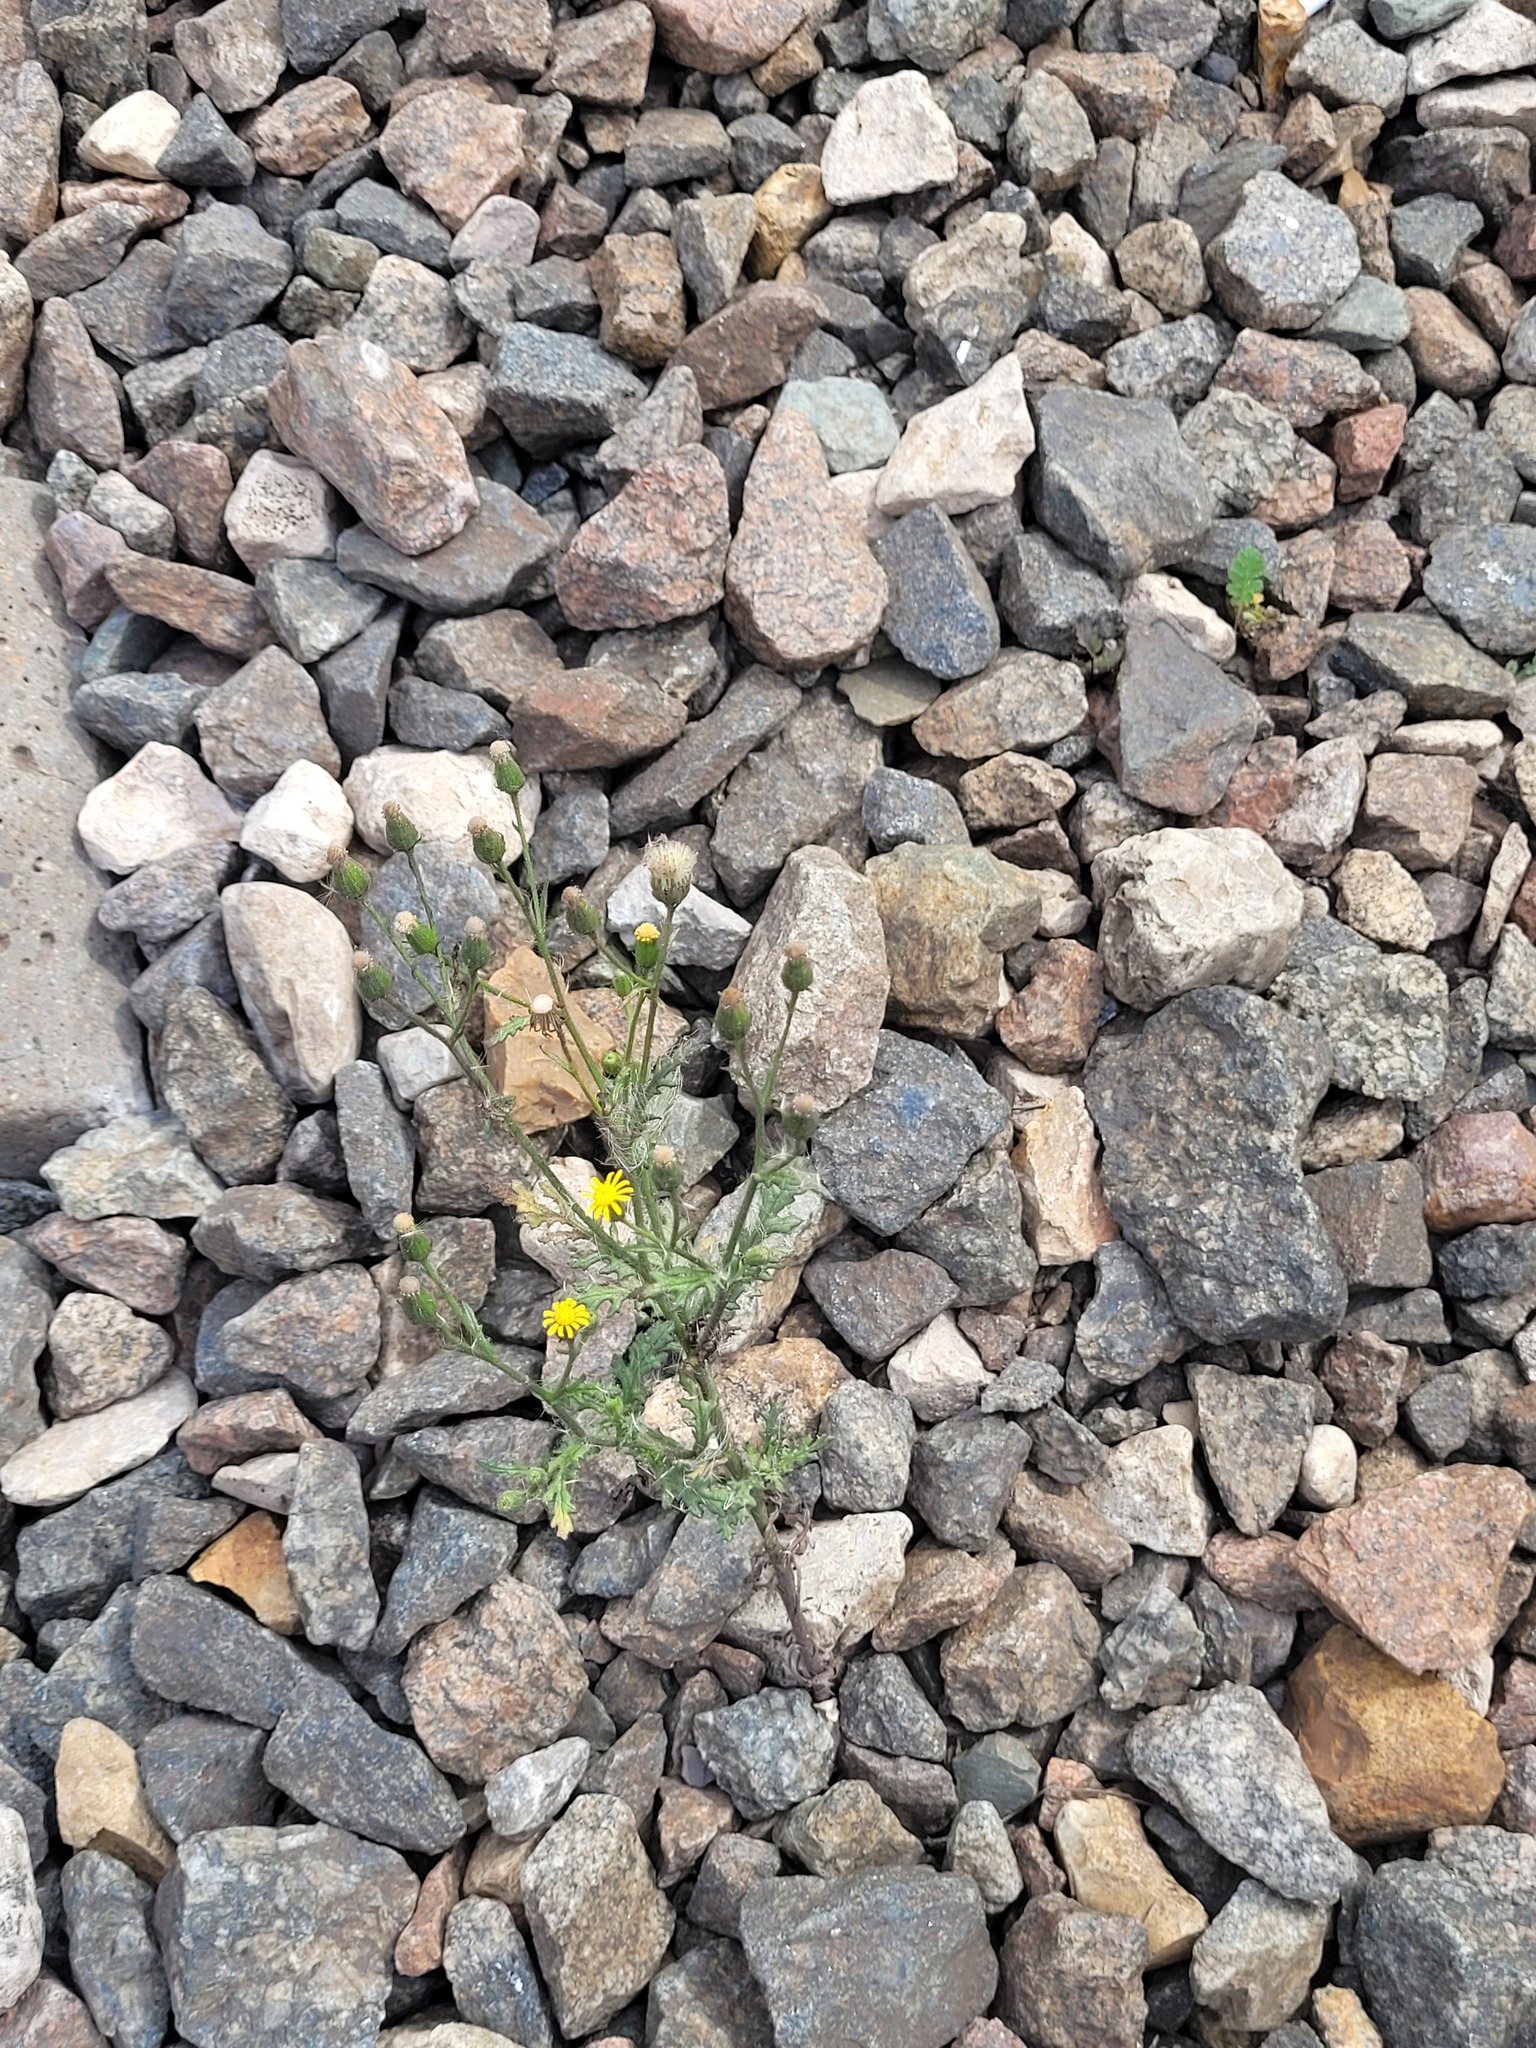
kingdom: Plantae
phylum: Tracheophyta
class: Magnoliopsida
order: Asterales
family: Asteraceae
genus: Senecio
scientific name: Senecio viscosus
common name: Sticky groundsel
